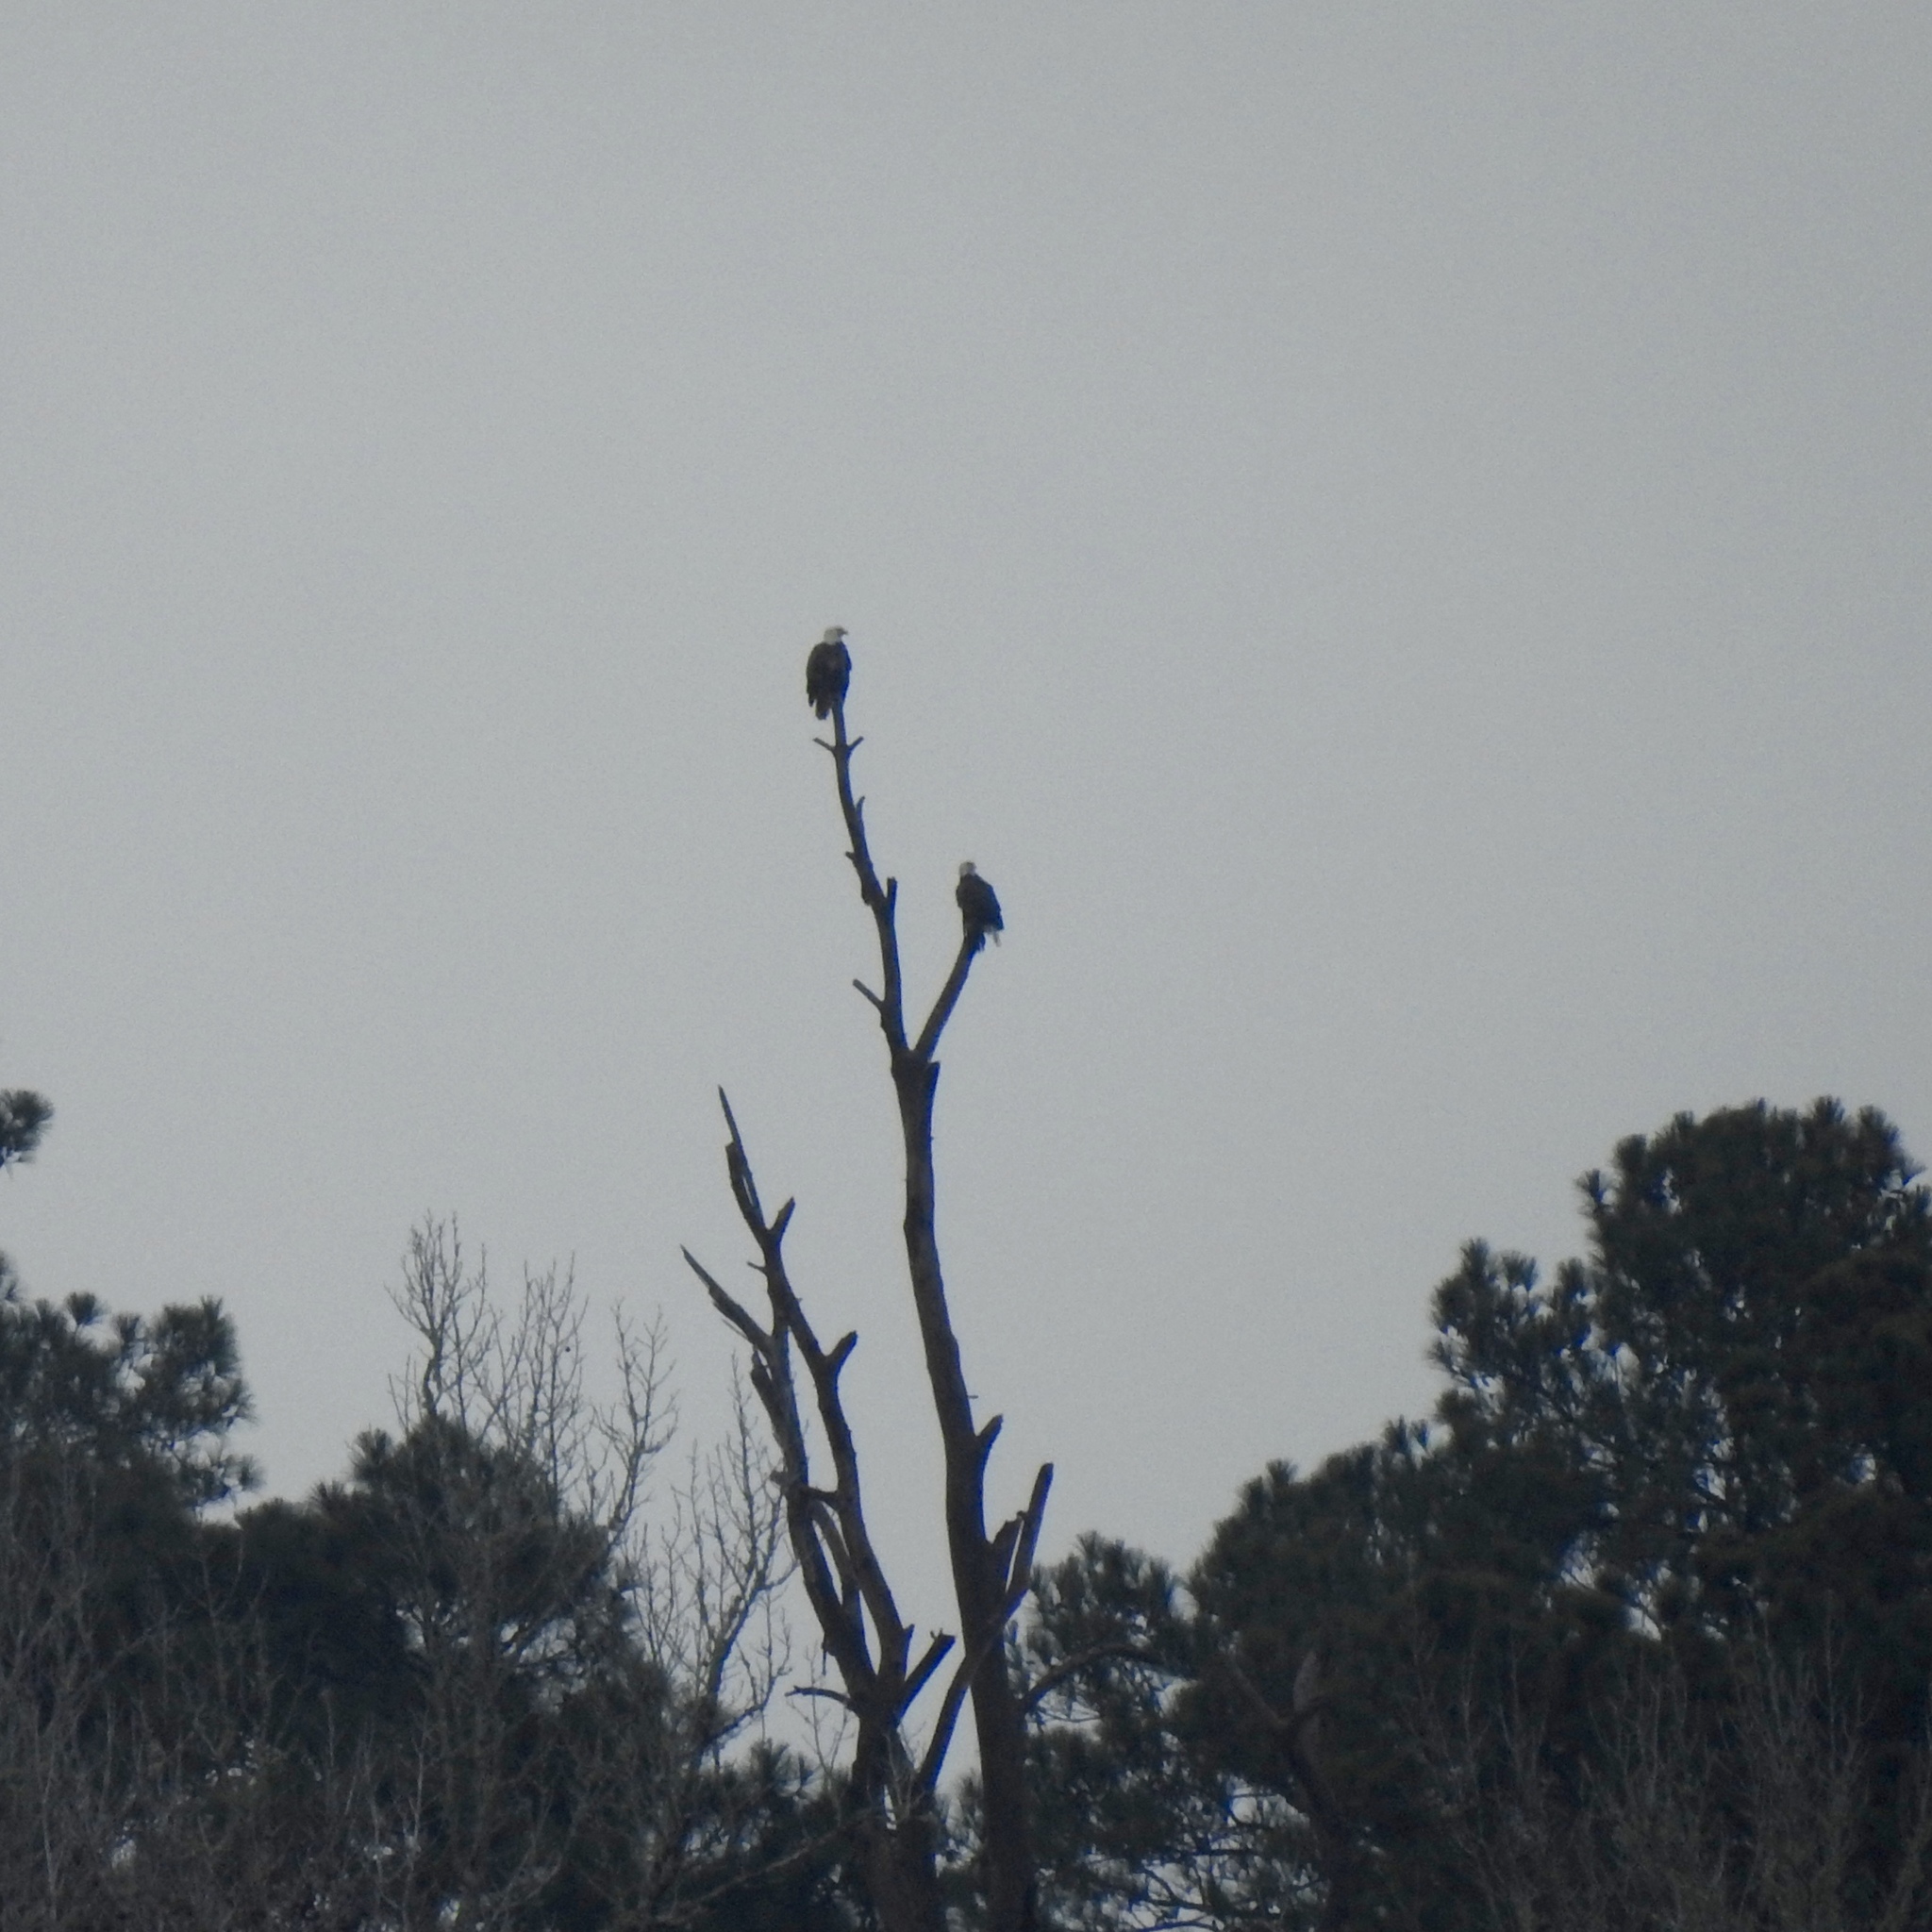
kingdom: Animalia
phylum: Chordata
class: Aves
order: Accipitriformes
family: Accipitridae
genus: Haliaeetus
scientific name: Haliaeetus leucocephalus
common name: Bald eagle
